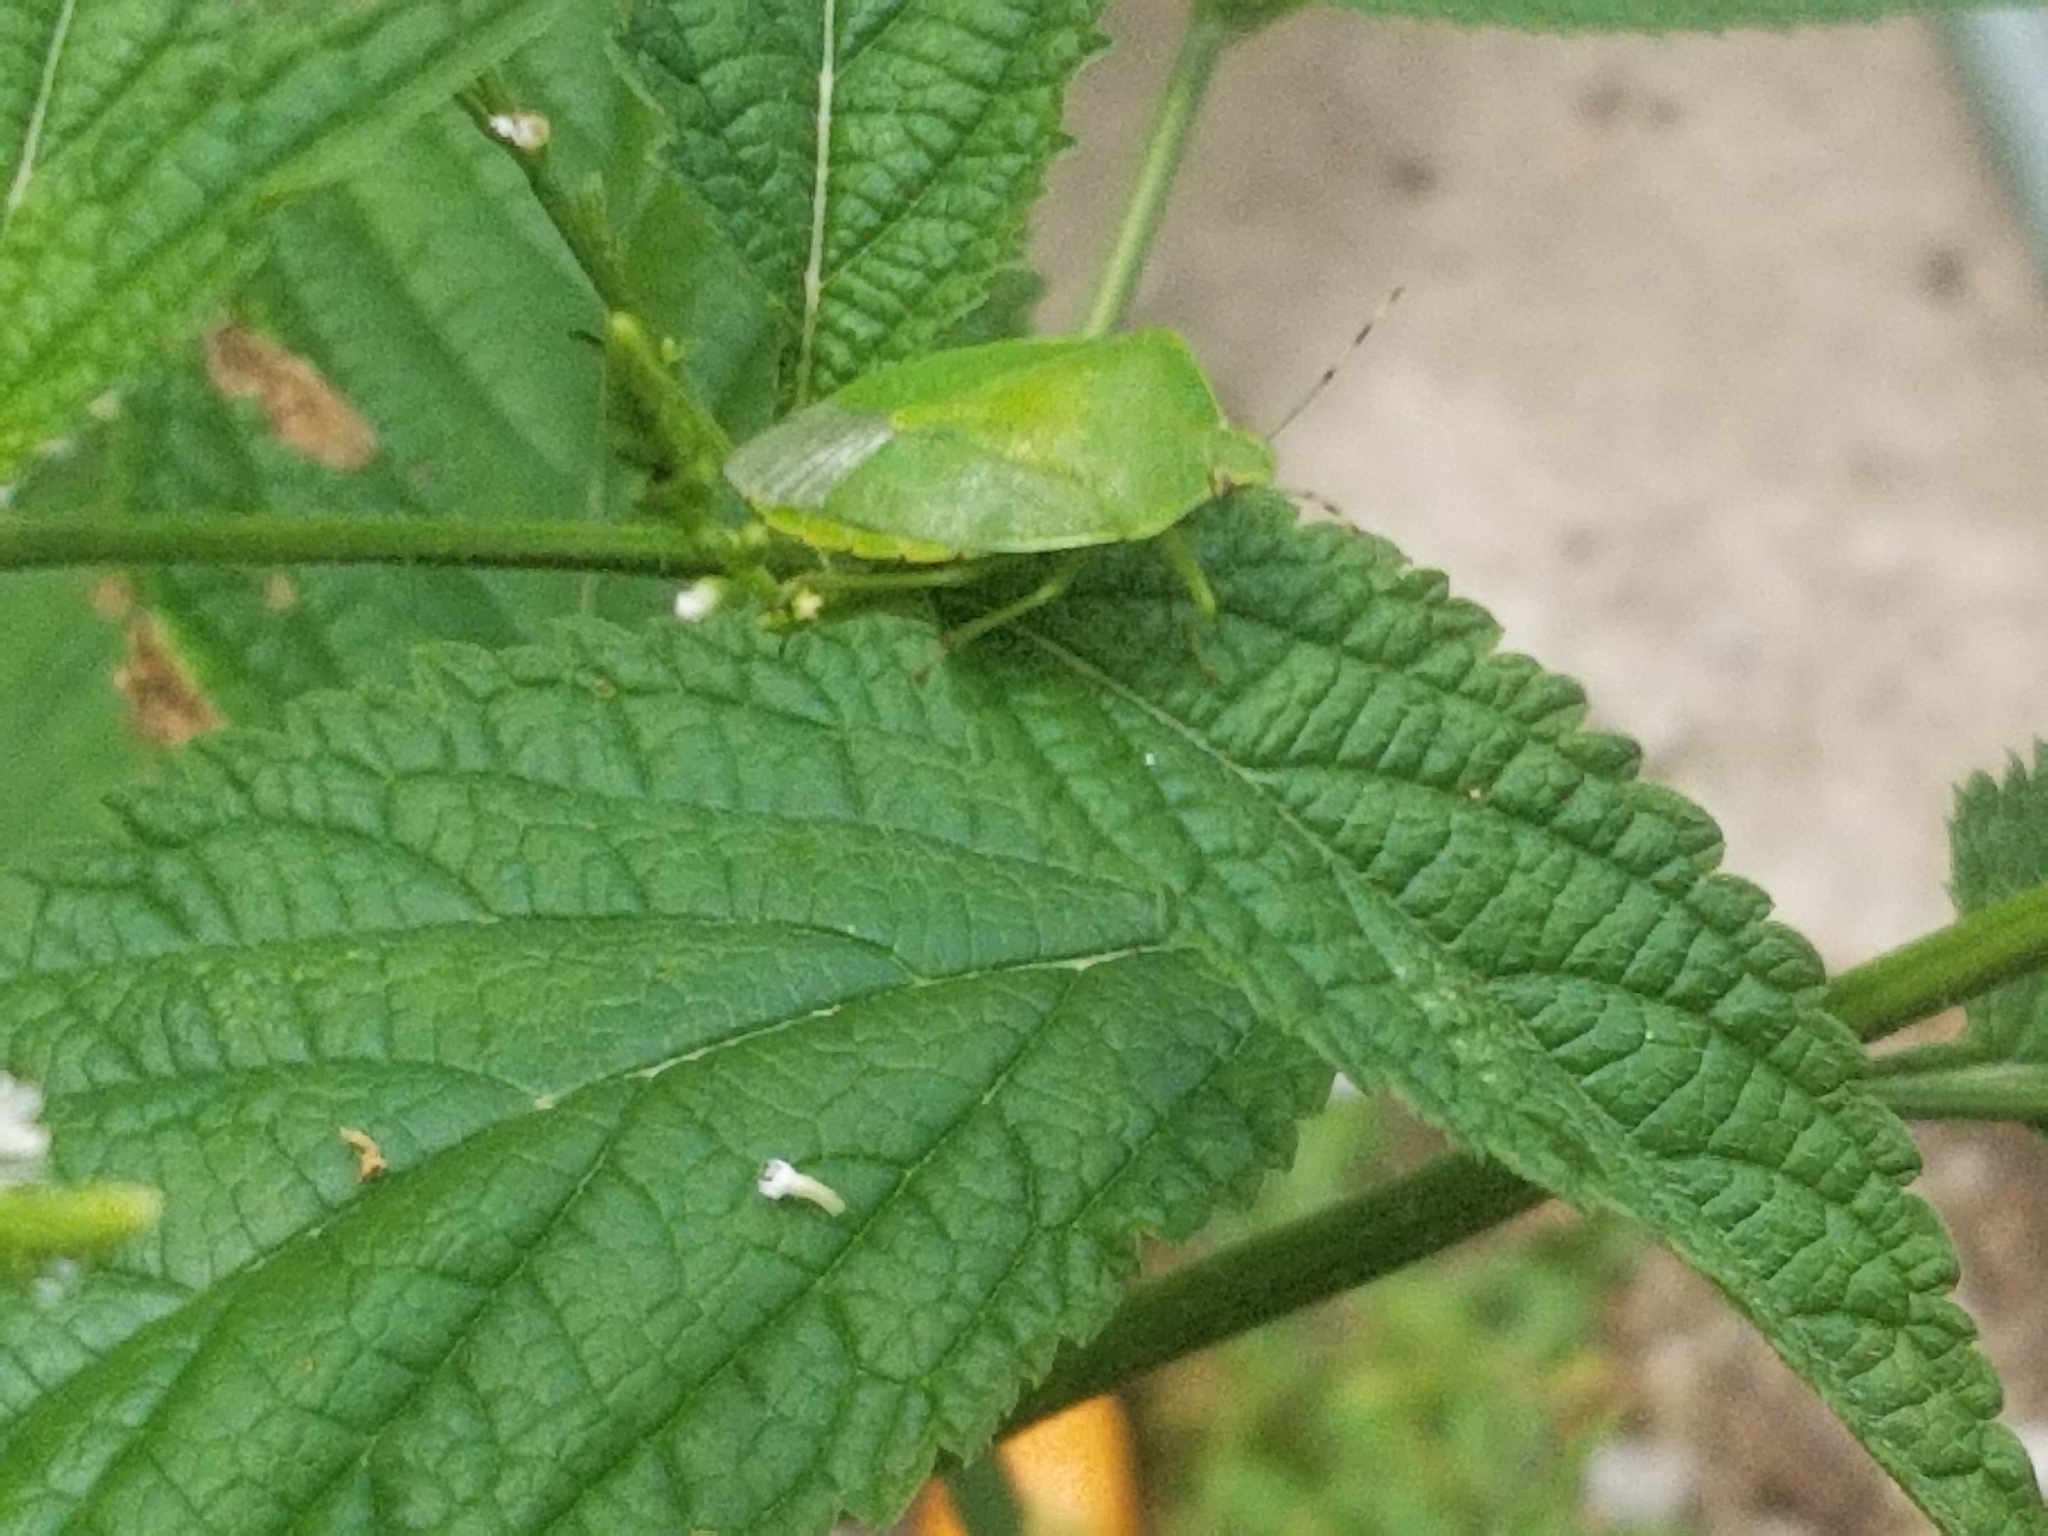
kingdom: Animalia
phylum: Arthropoda
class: Insecta
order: Hemiptera
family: Pentatomidae
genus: Chinavia
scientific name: Chinavia hilaris
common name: Green stink bug
